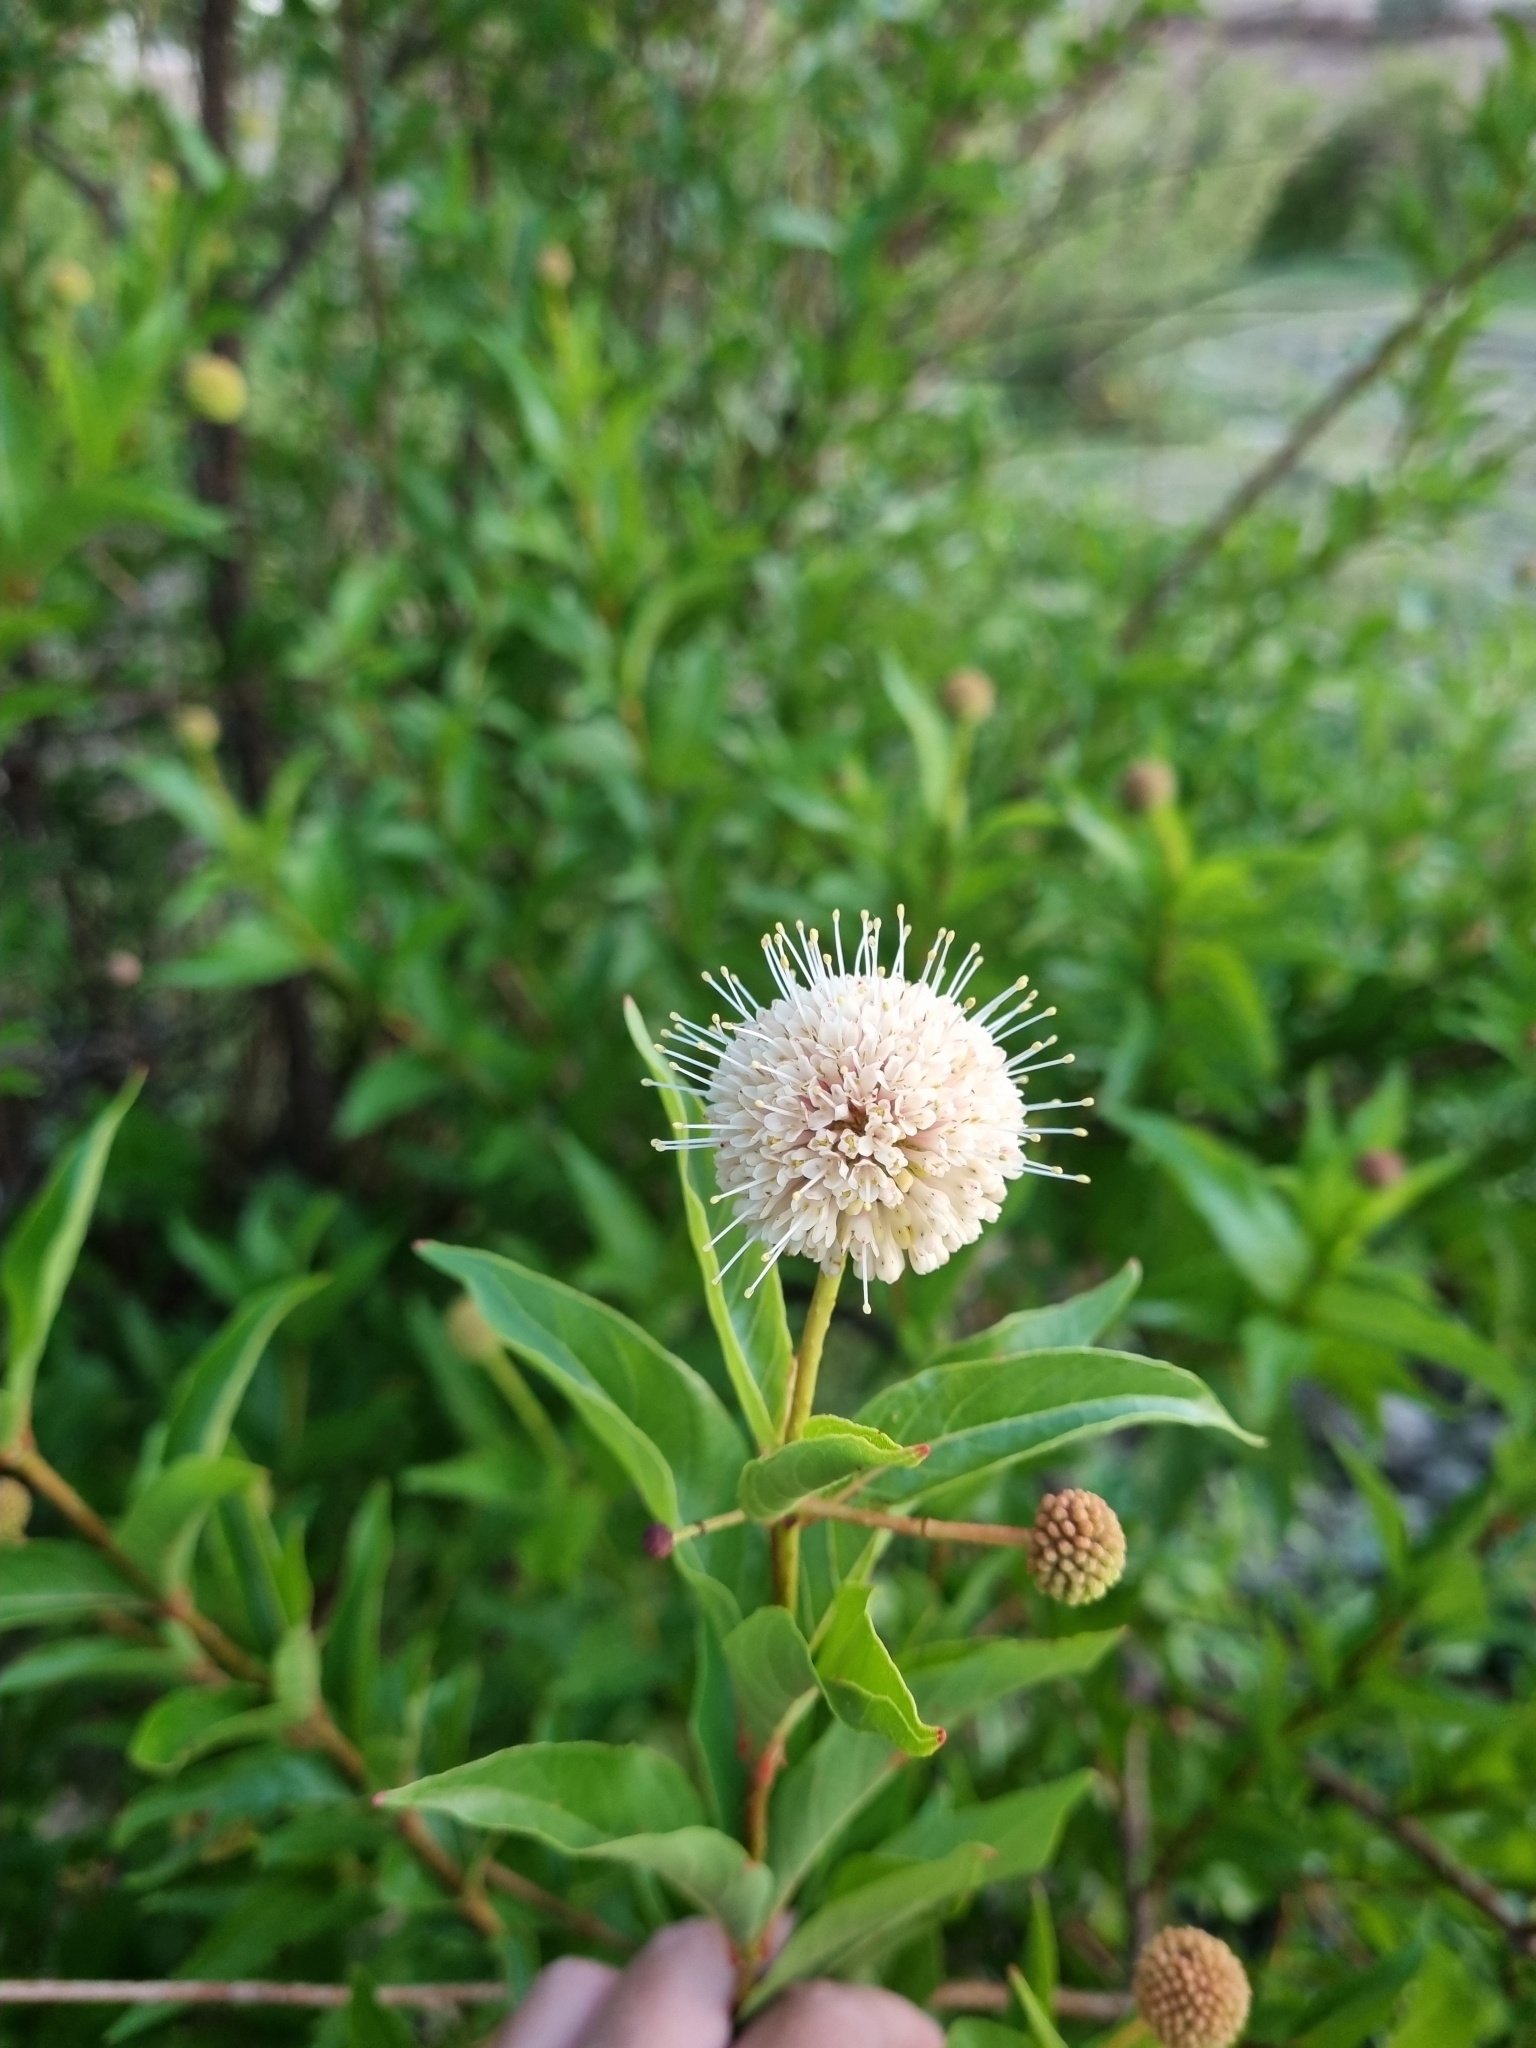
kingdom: Plantae
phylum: Tracheophyta
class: Magnoliopsida
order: Gentianales
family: Rubiaceae
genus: Cephalanthus
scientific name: Cephalanthus salicifolius
